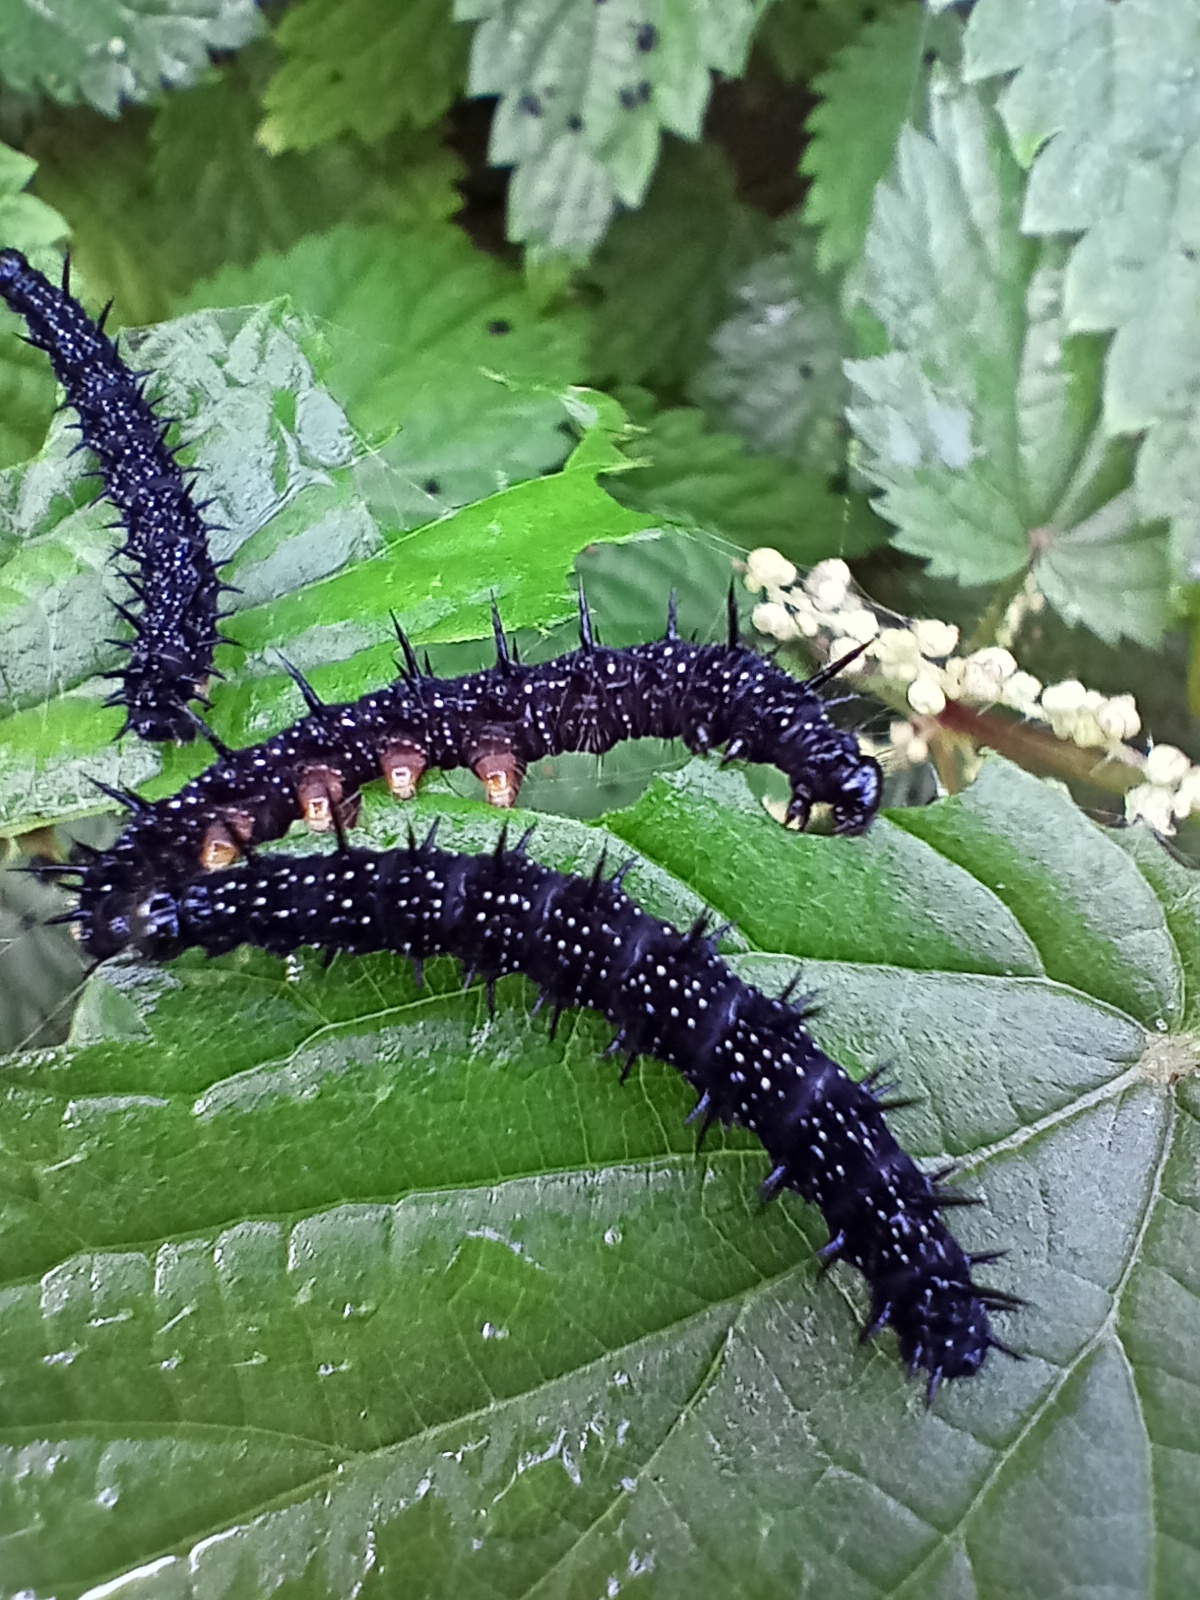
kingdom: Animalia
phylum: Arthropoda
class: Insecta
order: Lepidoptera
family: Nymphalidae
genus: Aglais
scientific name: Aglais io
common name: Peacock
